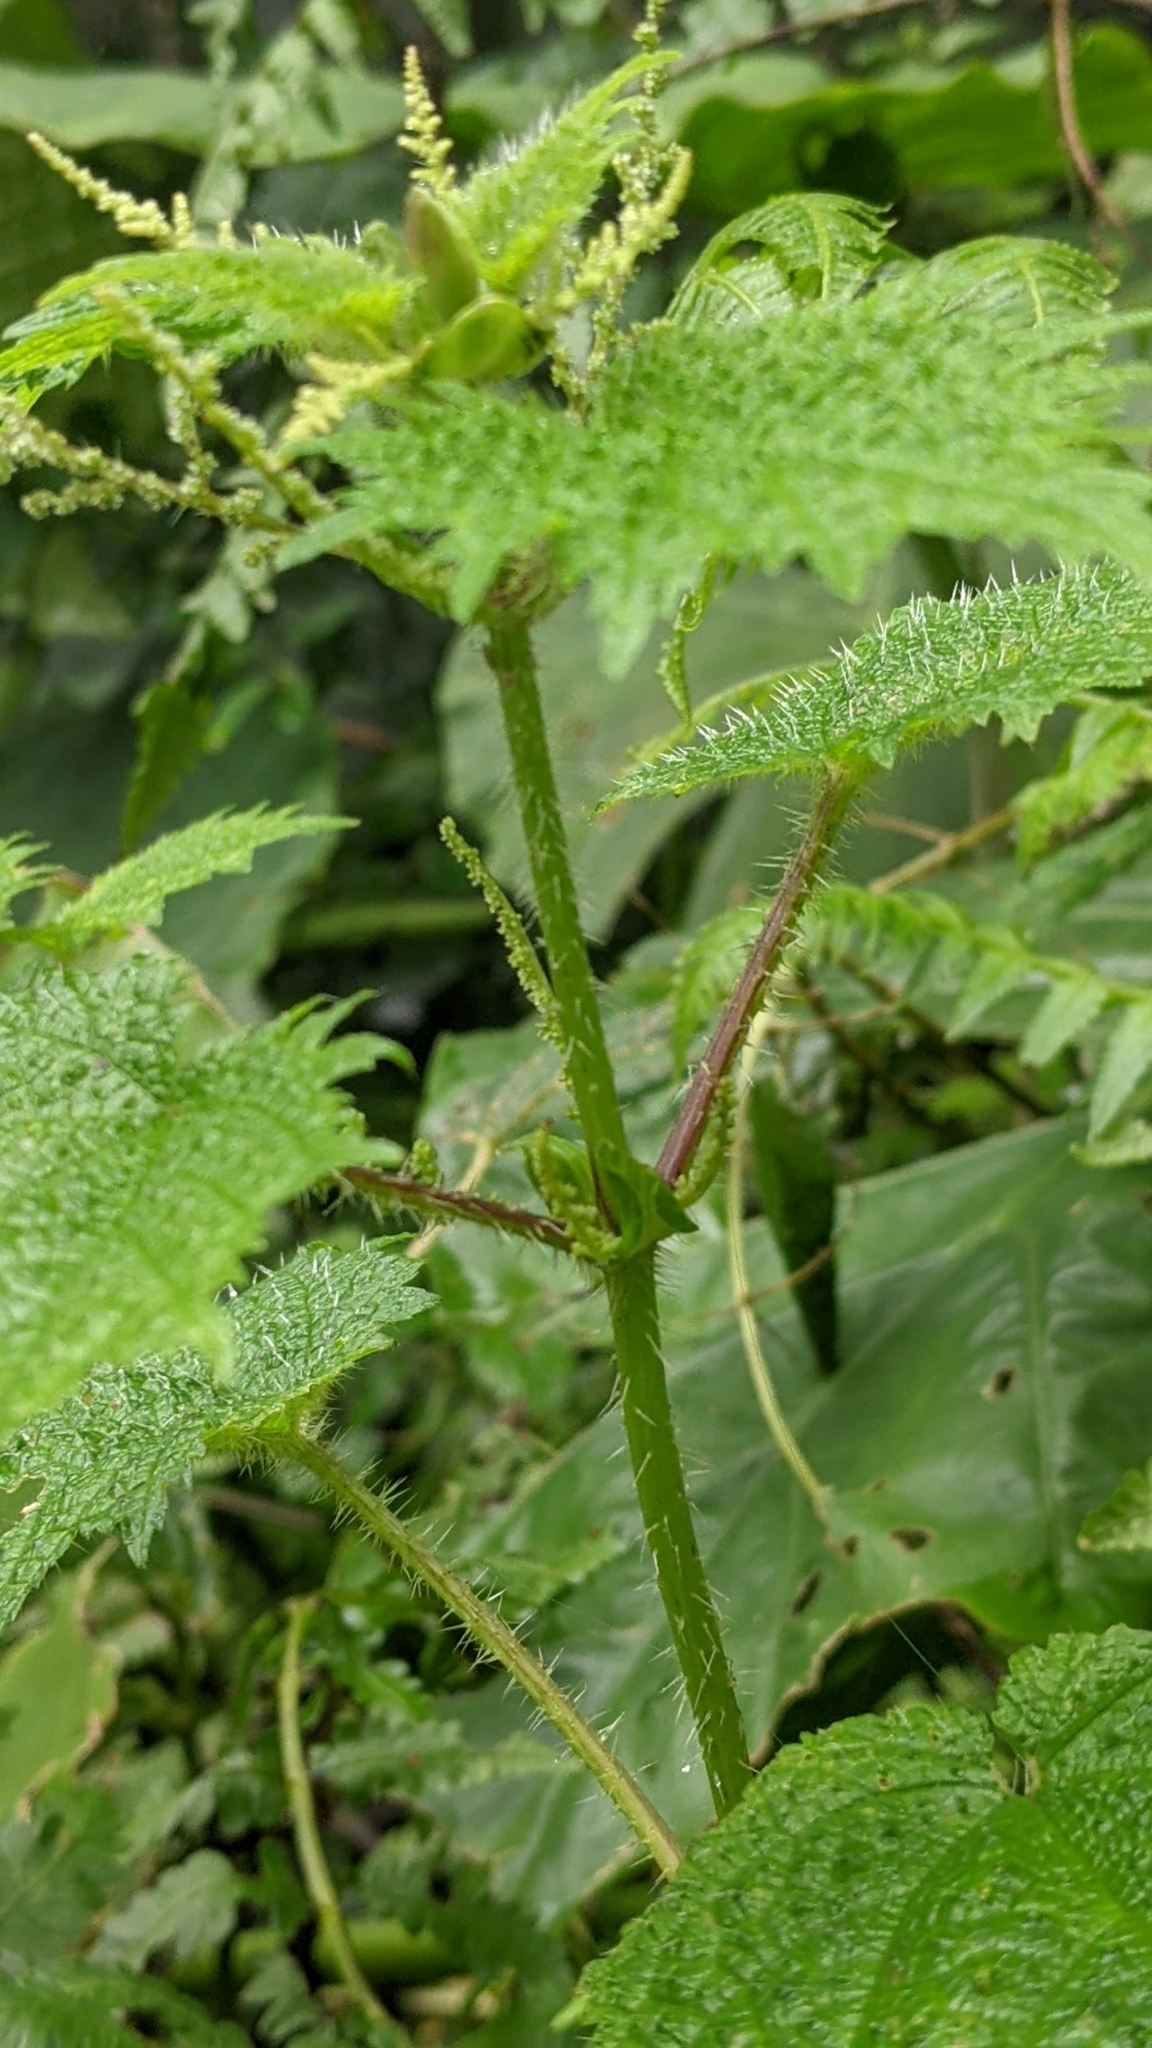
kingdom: Plantae
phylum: Tracheophyta
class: Magnoliopsida
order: Rosales
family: Urticaceae
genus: Urtica
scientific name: Urtica thunbergiana
